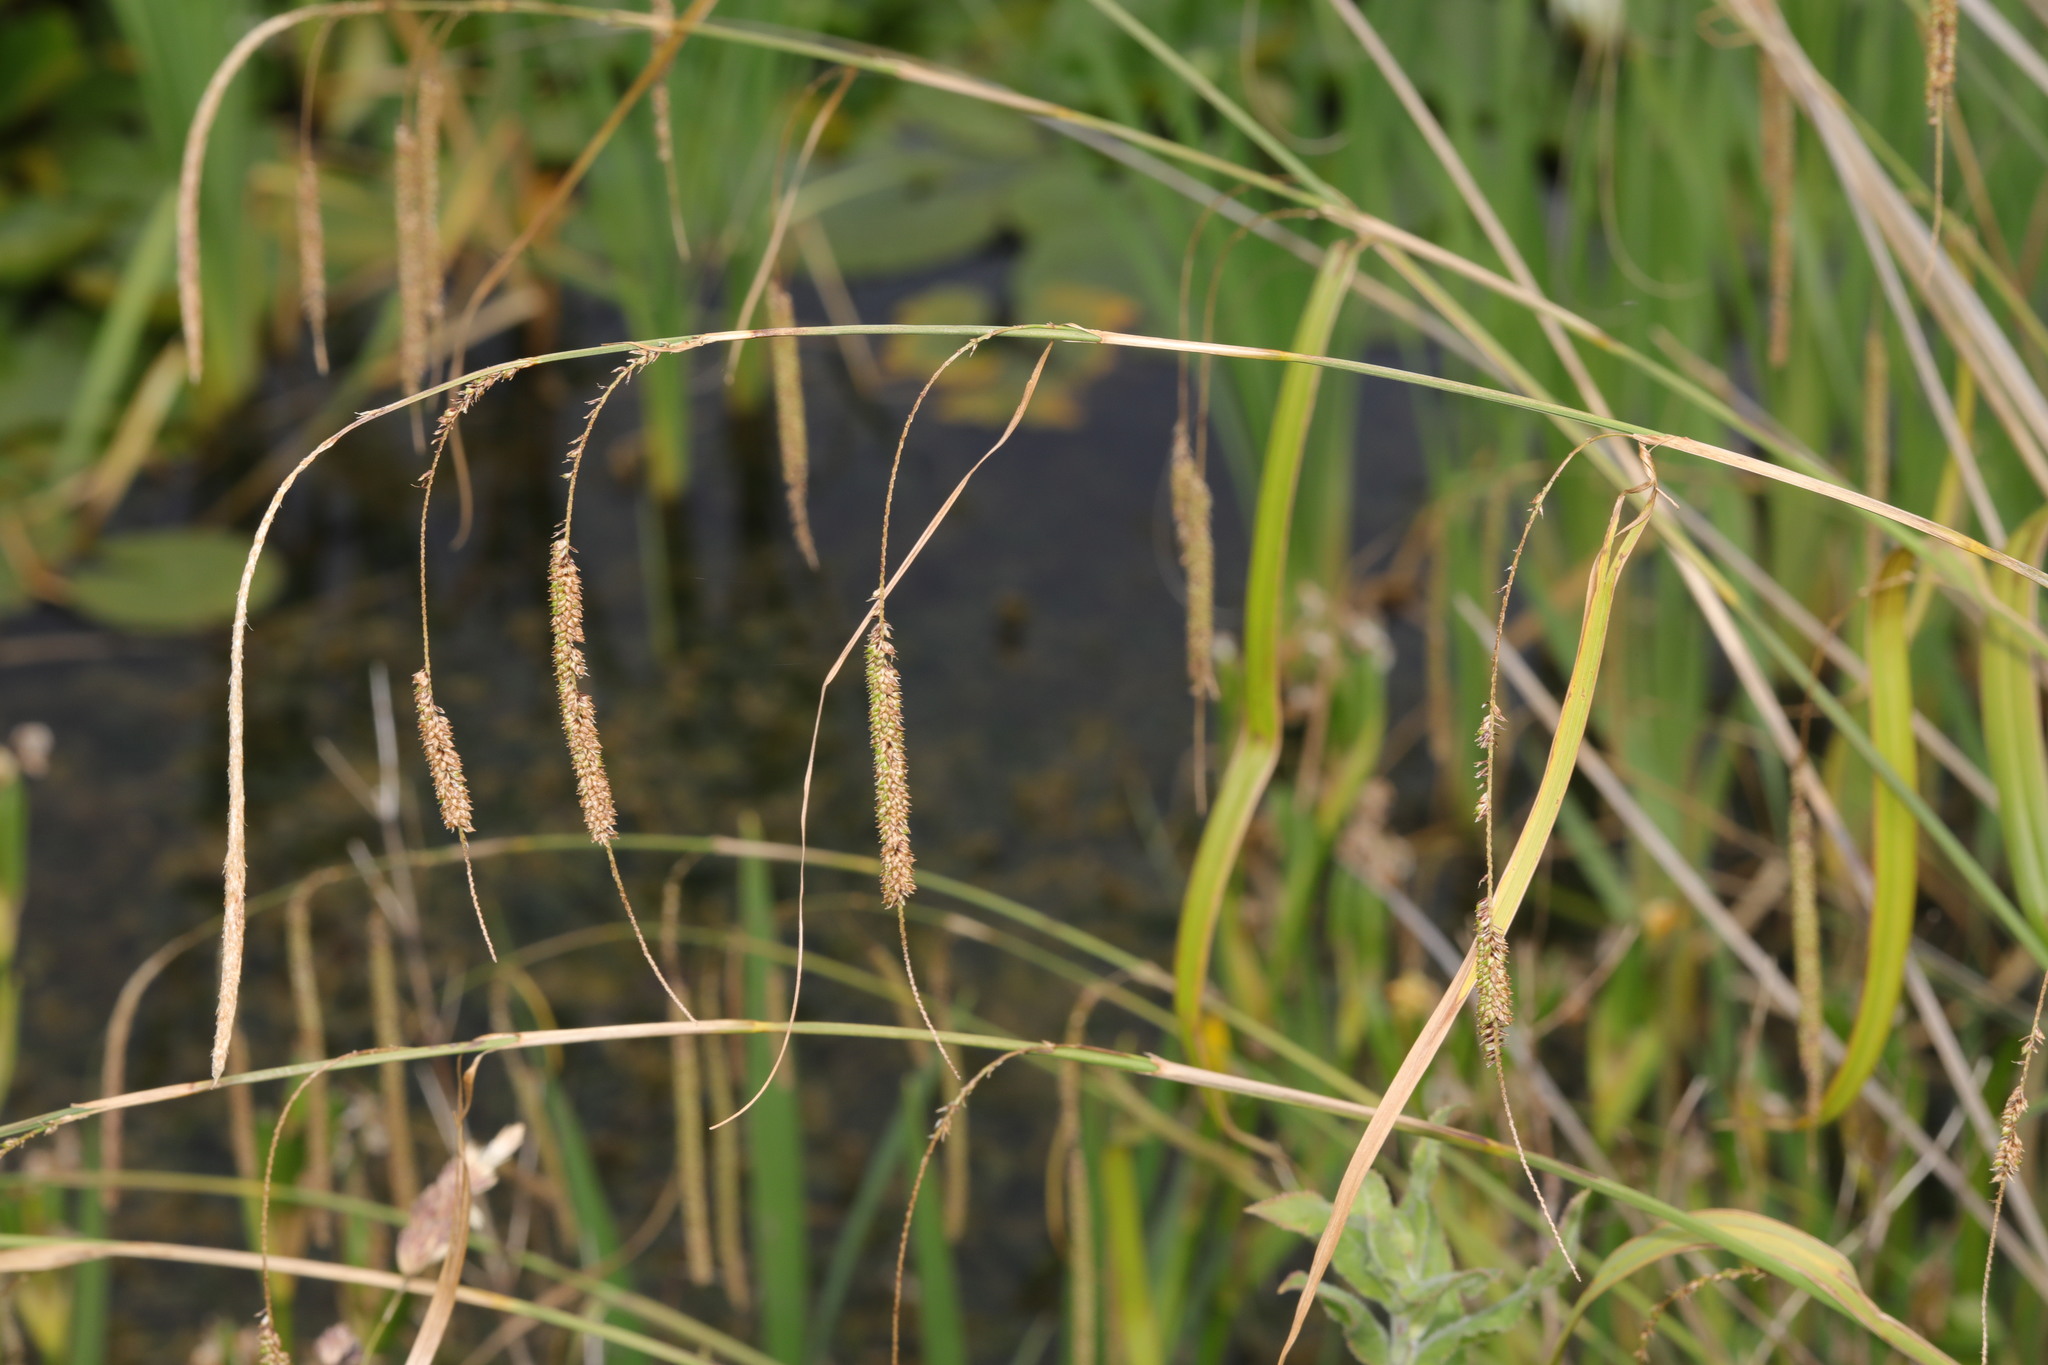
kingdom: Plantae
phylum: Tracheophyta
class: Liliopsida
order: Poales
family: Cyperaceae
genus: Carex
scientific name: Carex pendula
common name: Pendulous sedge
